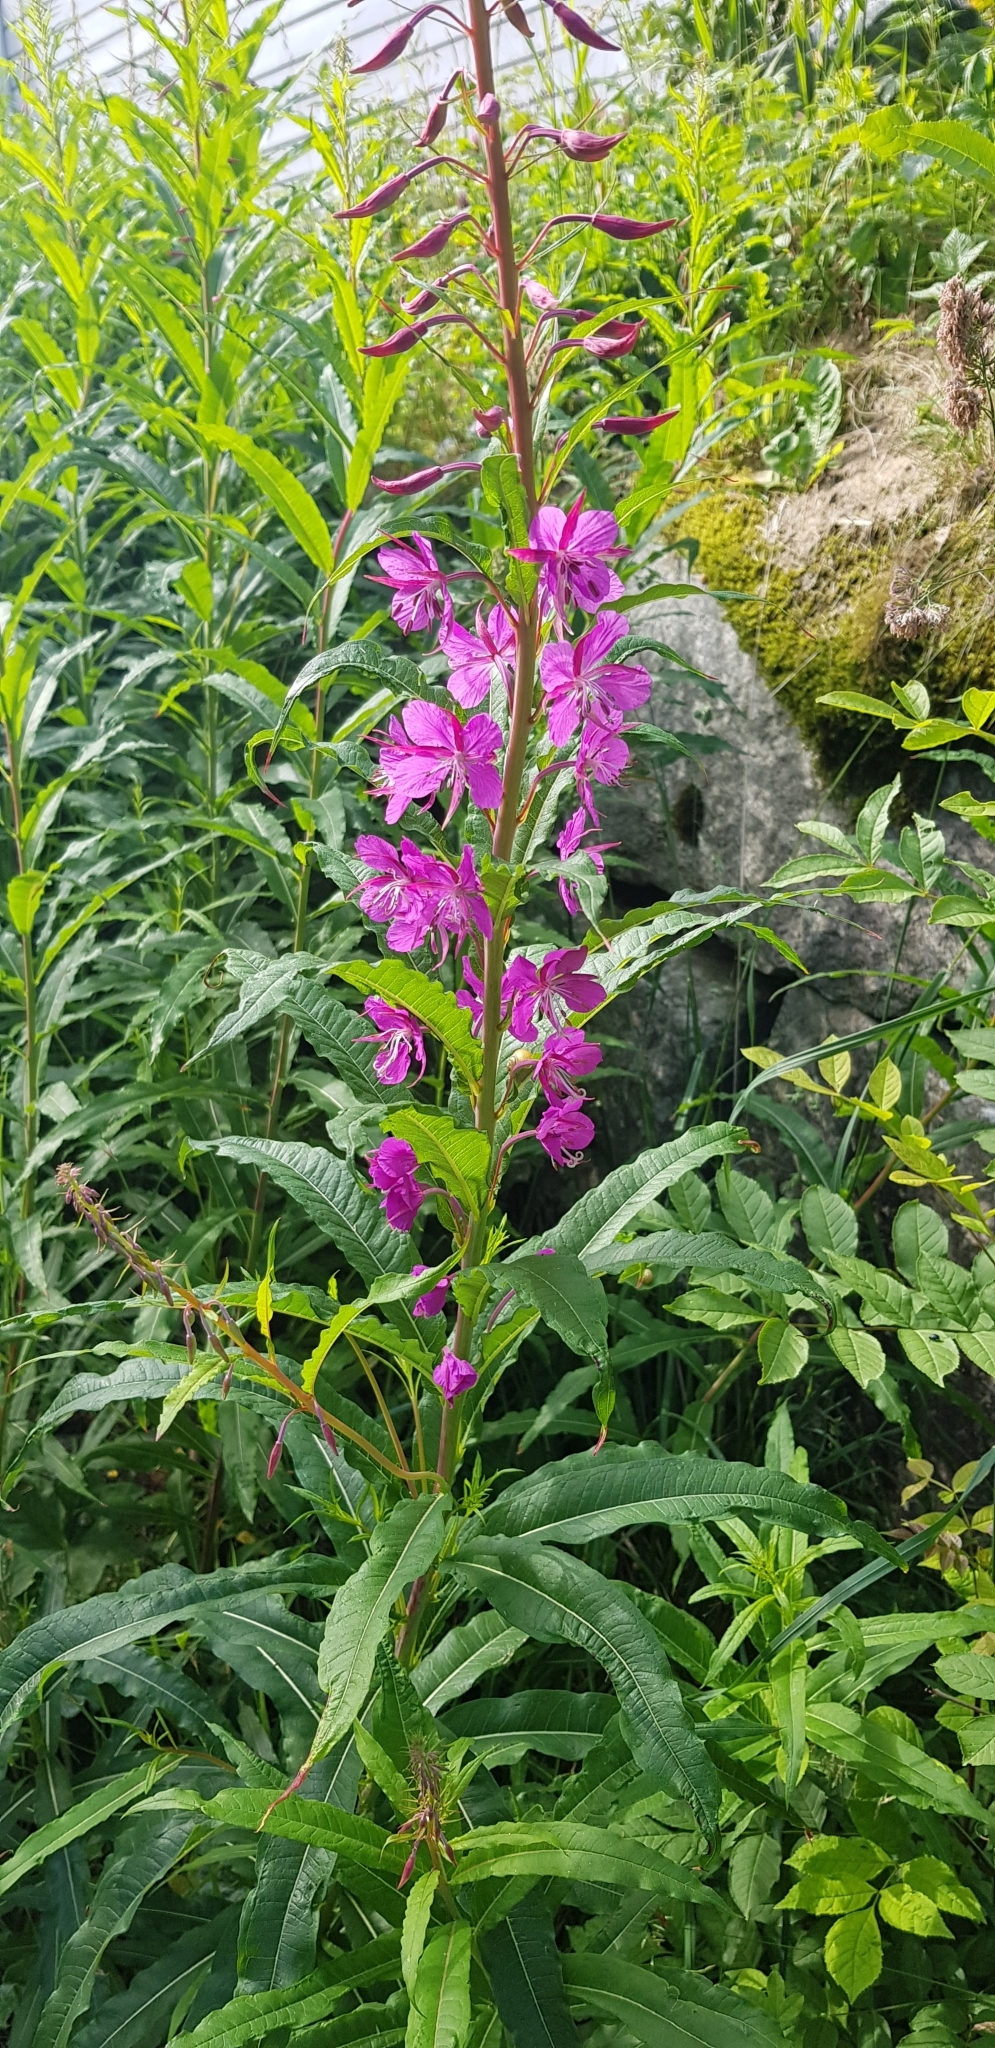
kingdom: Plantae
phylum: Tracheophyta
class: Magnoliopsida
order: Myrtales
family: Onagraceae
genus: Chamaenerion
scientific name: Chamaenerion angustifolium
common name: Fireweed
